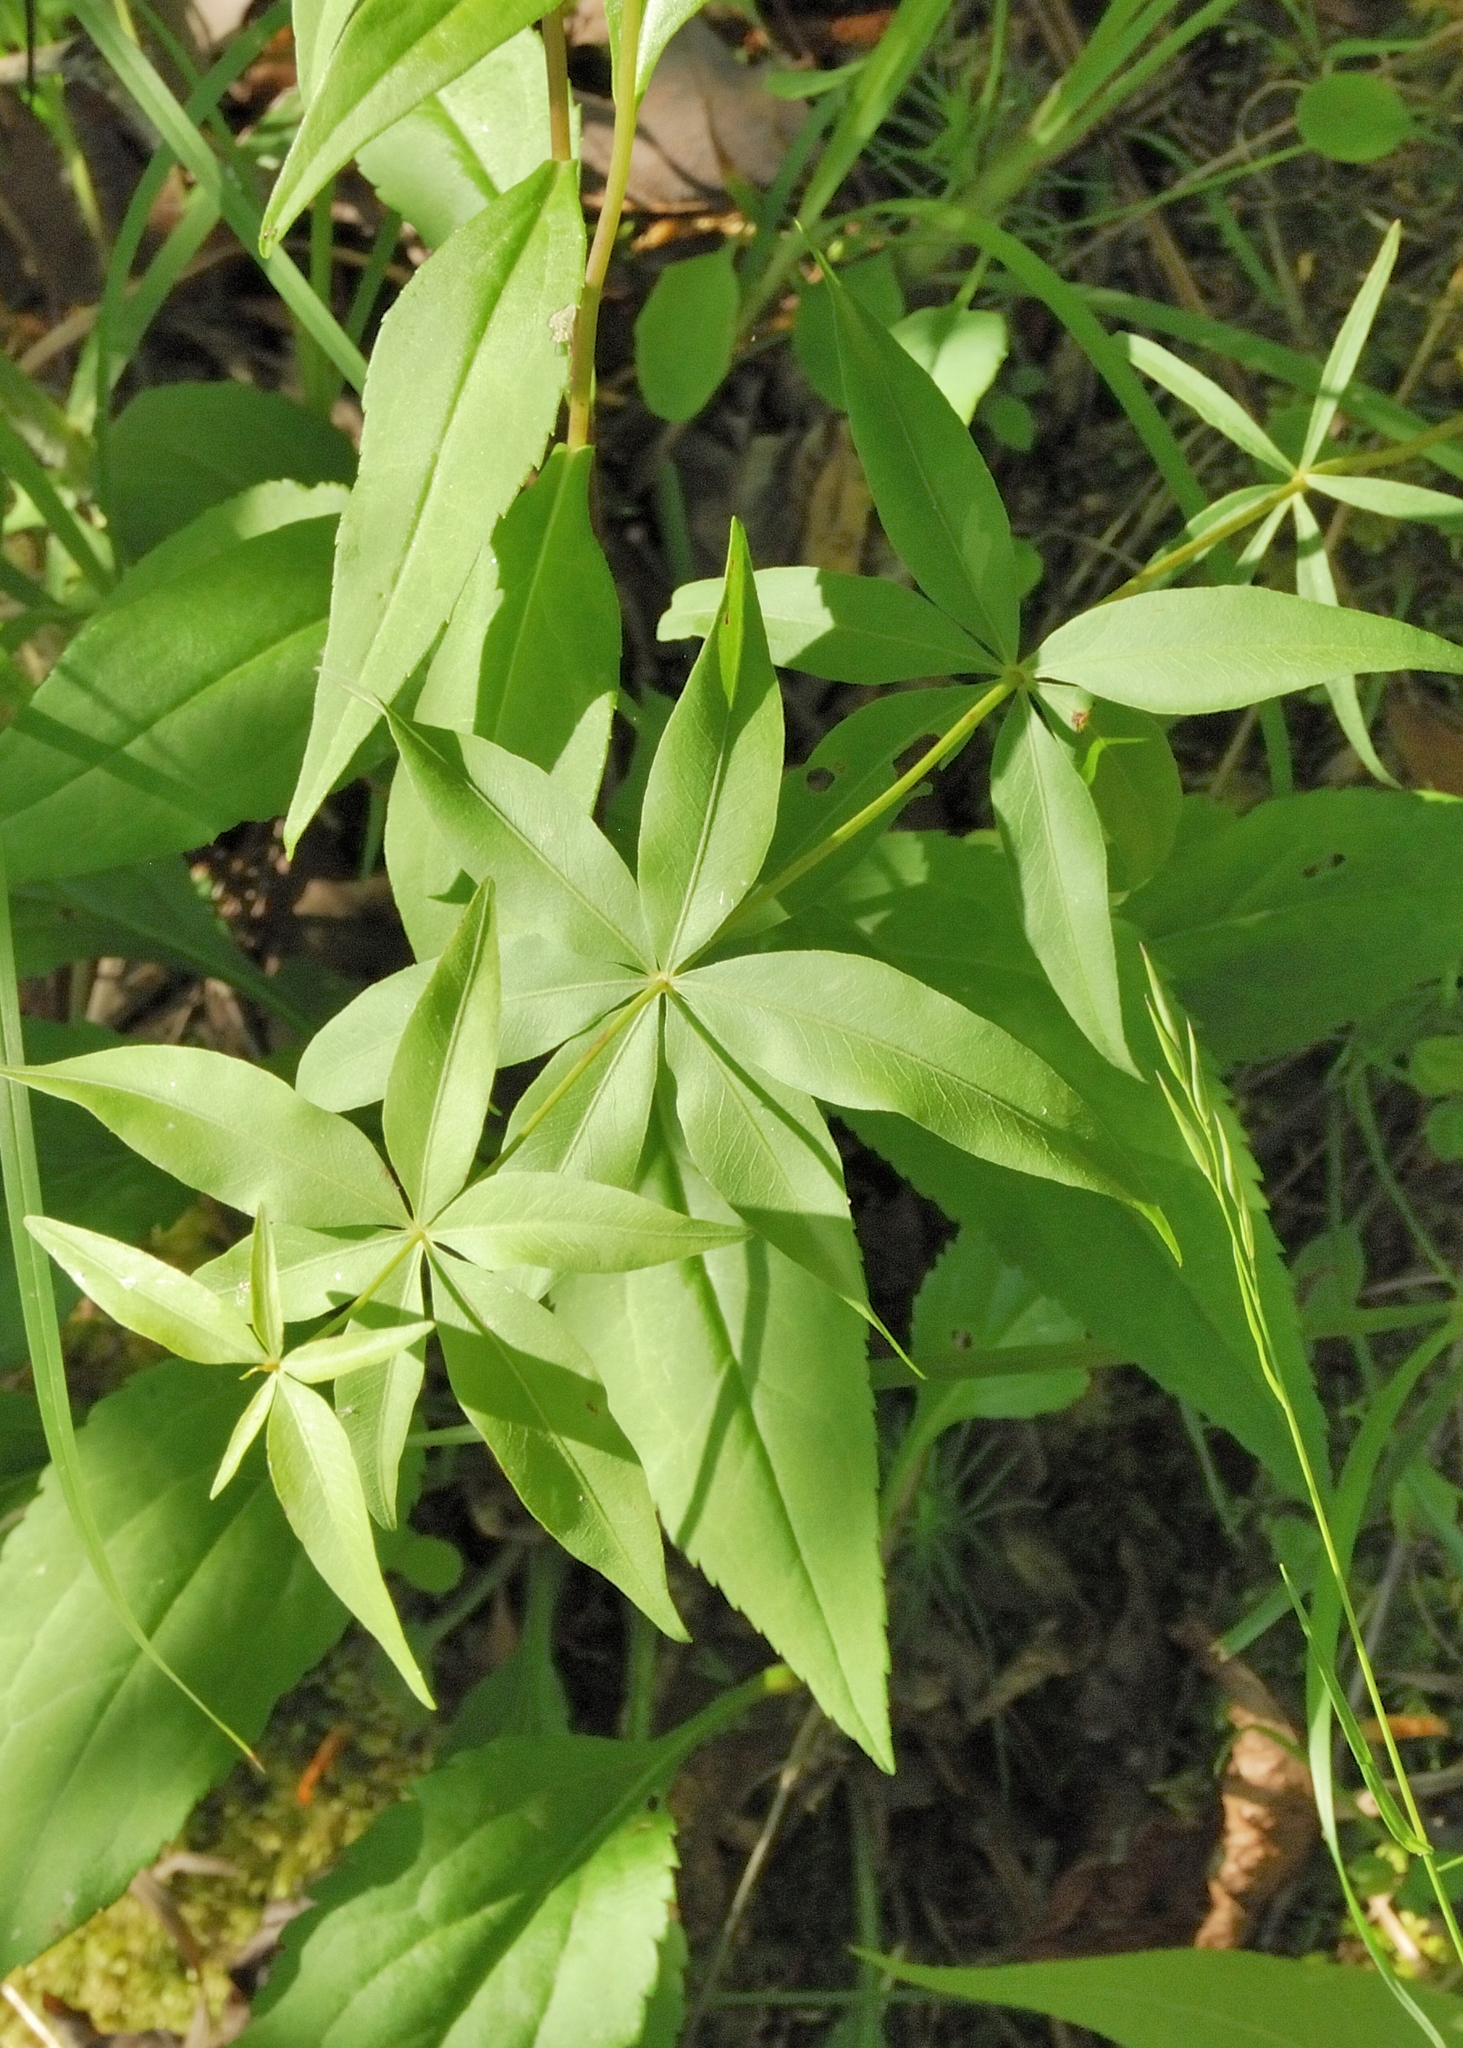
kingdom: Plantae
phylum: Tracheophyta
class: Magnoliopsida
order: Asterales
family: Asteraceae
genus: Coreopsis
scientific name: Coreopsis major
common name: Forest tickseed
